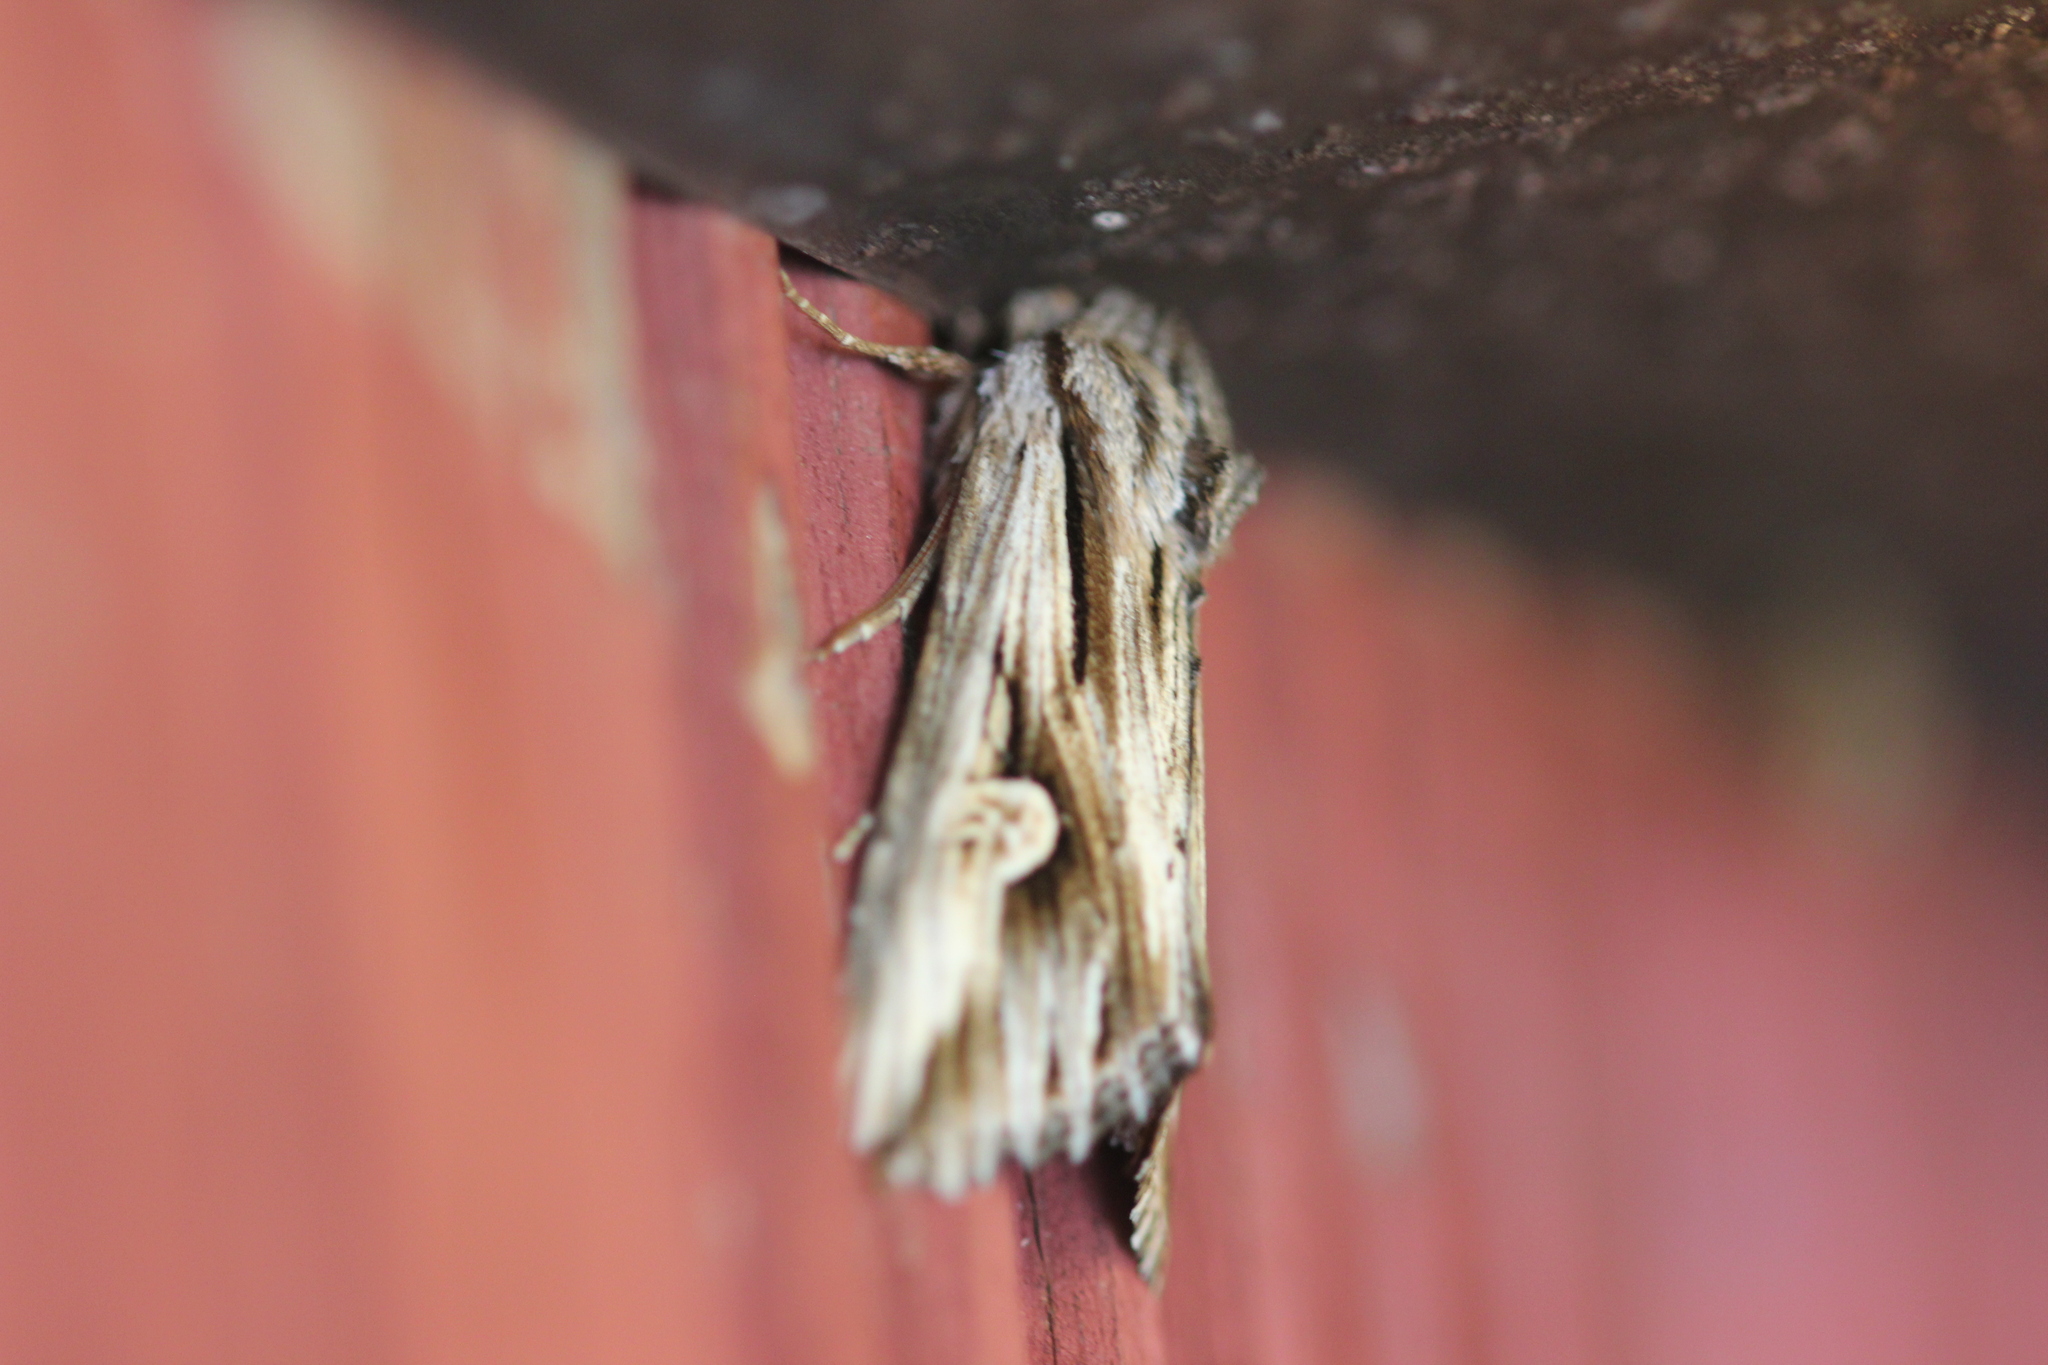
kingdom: Animalia
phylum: Arthropoda
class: Insecta
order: Lepidoptera
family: Noctuidae
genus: Nedra
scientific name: Nedra ramosula
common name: Gray half-spot
